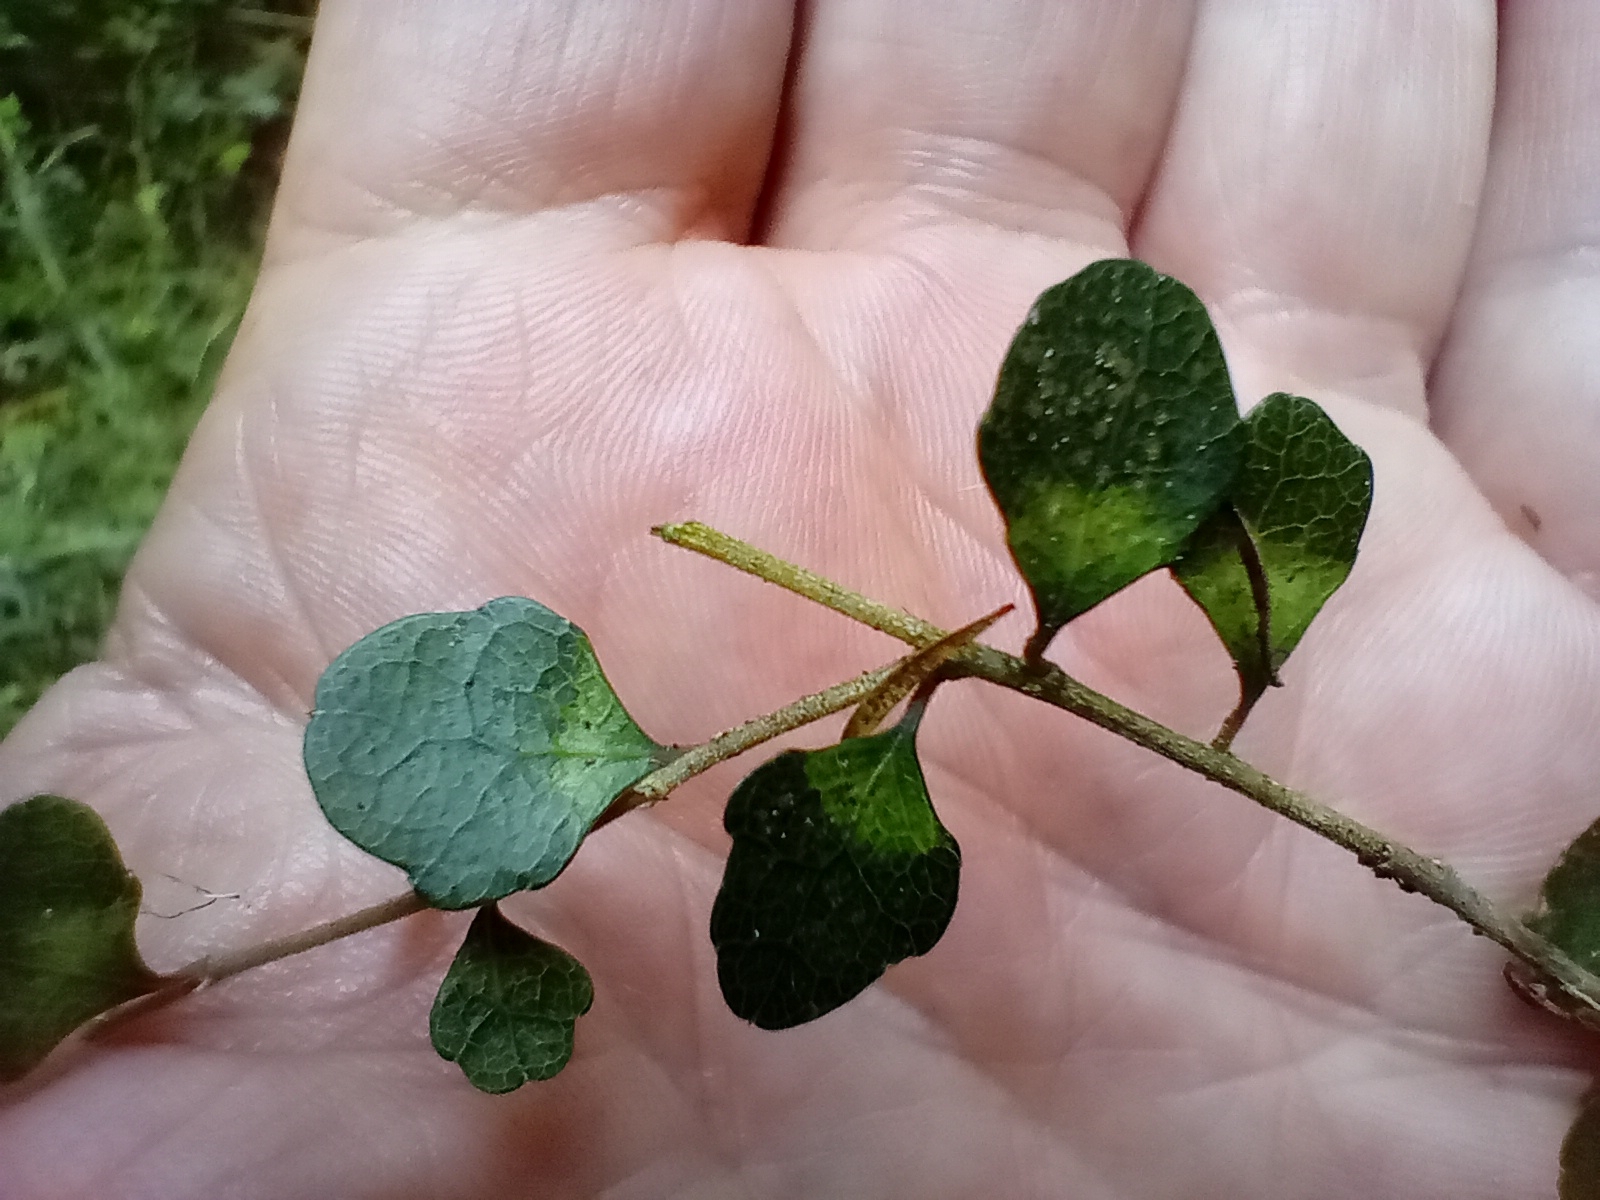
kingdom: Plantae
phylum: Tracheophyta
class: Magnoliopsida
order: Malpighiales
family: Violaceae
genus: Melicytus
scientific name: Melicytus micranthus
